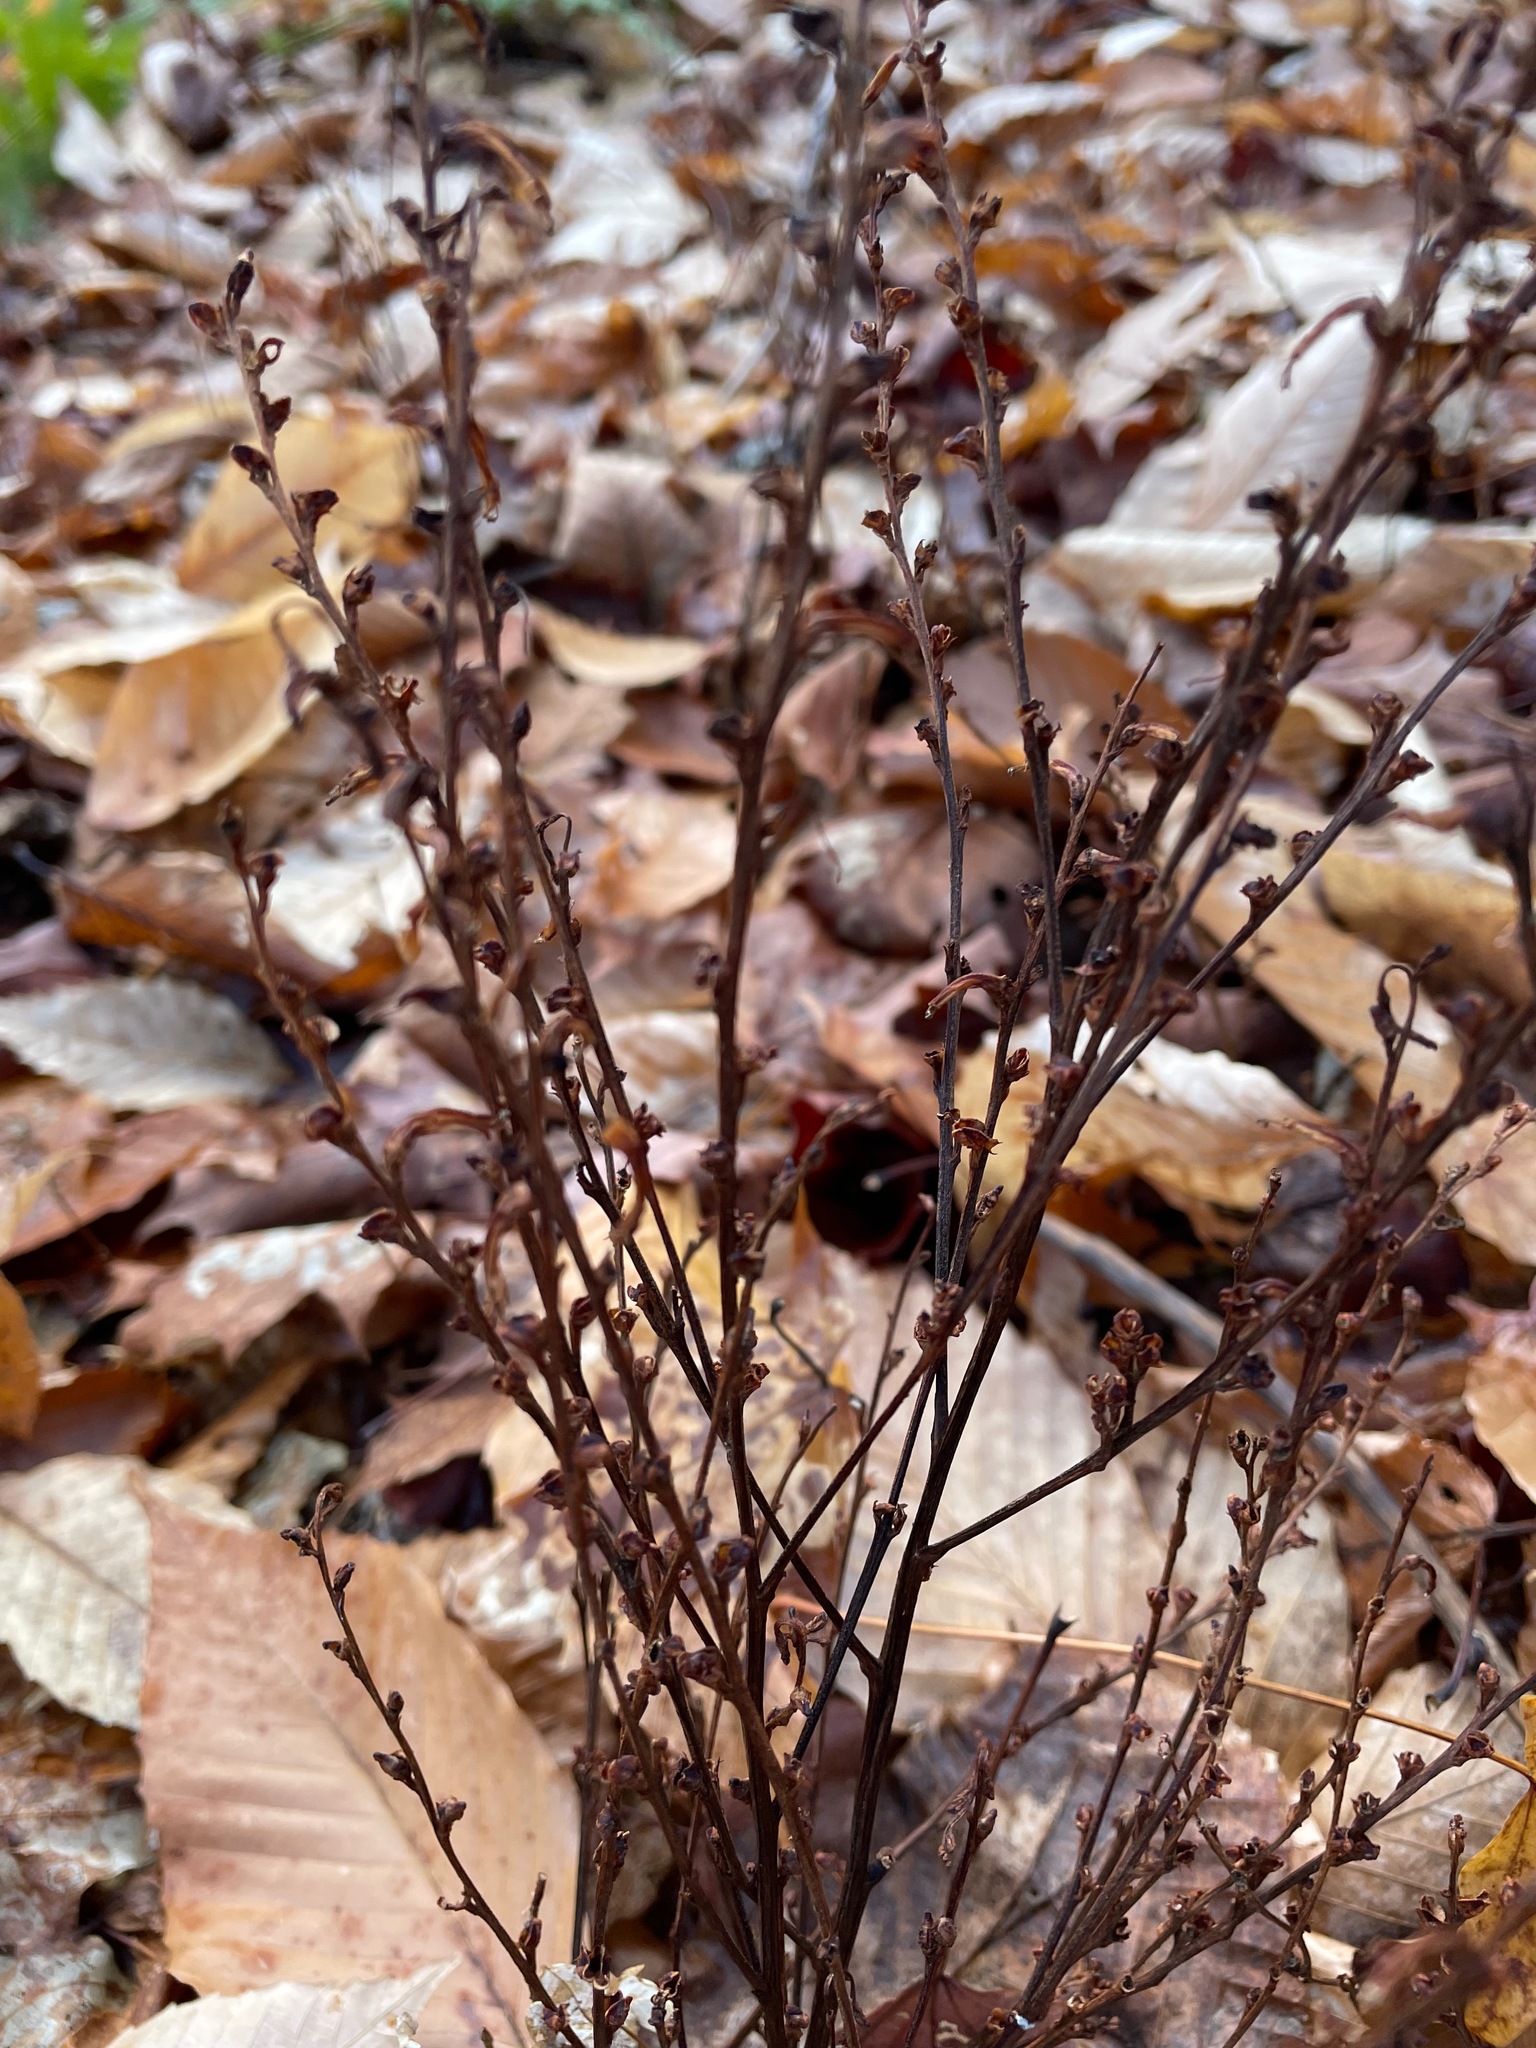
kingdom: Plantae
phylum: Tracheophyta
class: Magnoliopsida
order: Lamiales
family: Orobanchaceae
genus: Epifagus
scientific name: Epifagus virginiana
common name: Beechdrops
